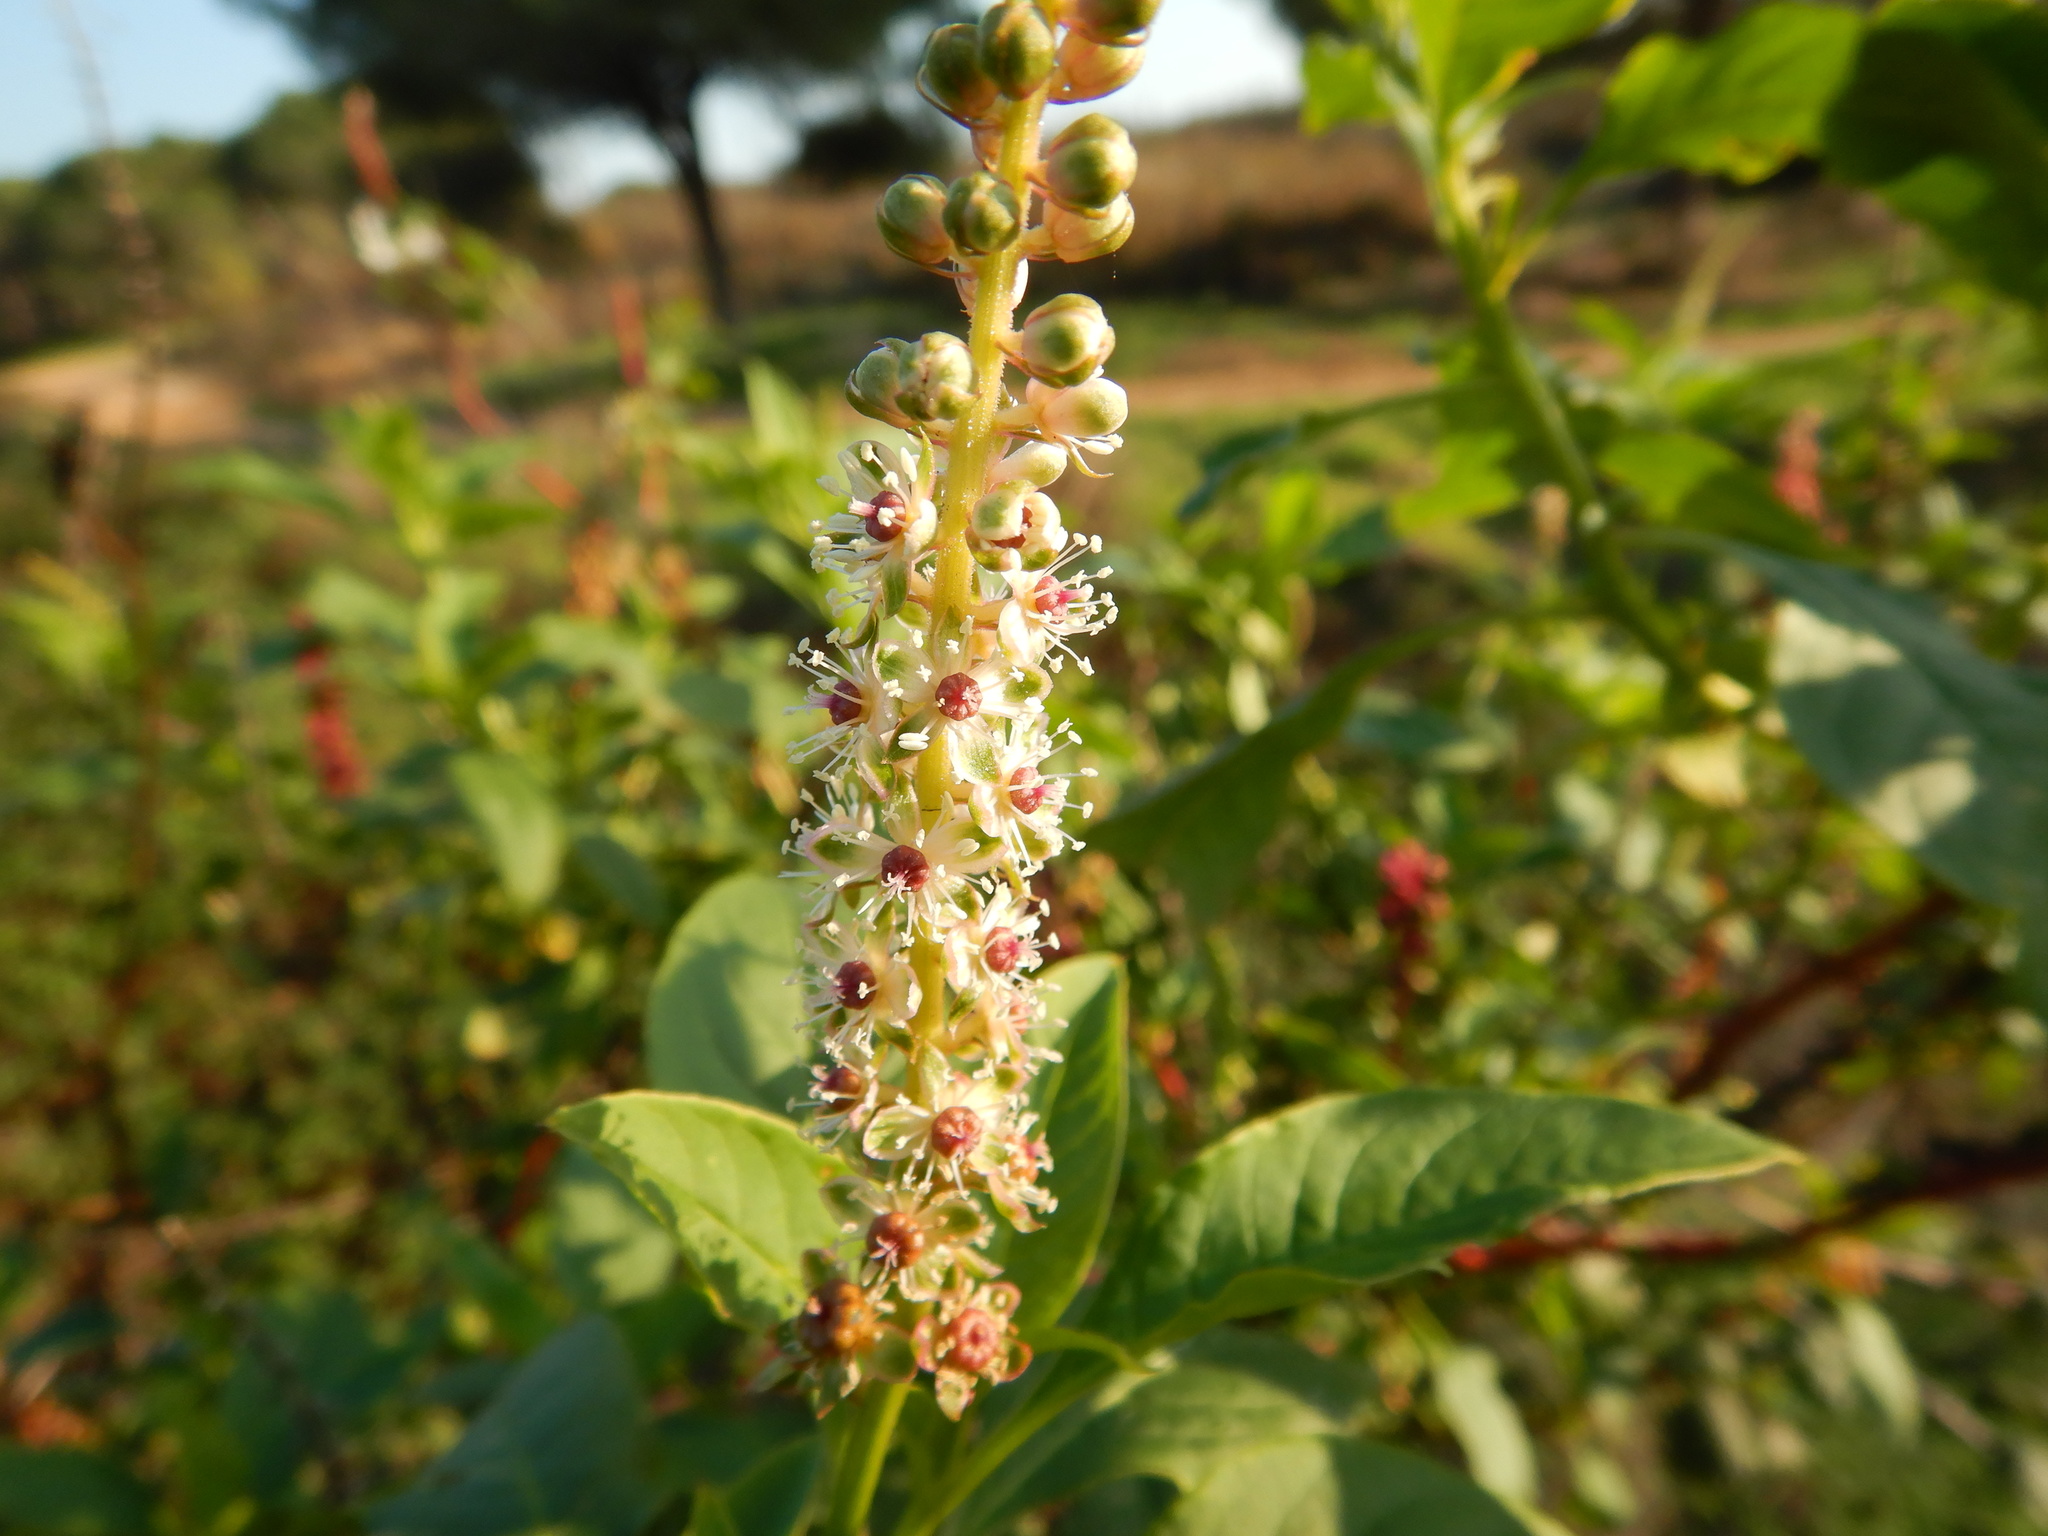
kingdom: Plantae
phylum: Tracheophyta
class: Magnoliopsida
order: Caryophyllales
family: Phytolaccaceae
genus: Phytolacca
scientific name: Phytolacca heterotepala
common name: Mexican pokeweed
